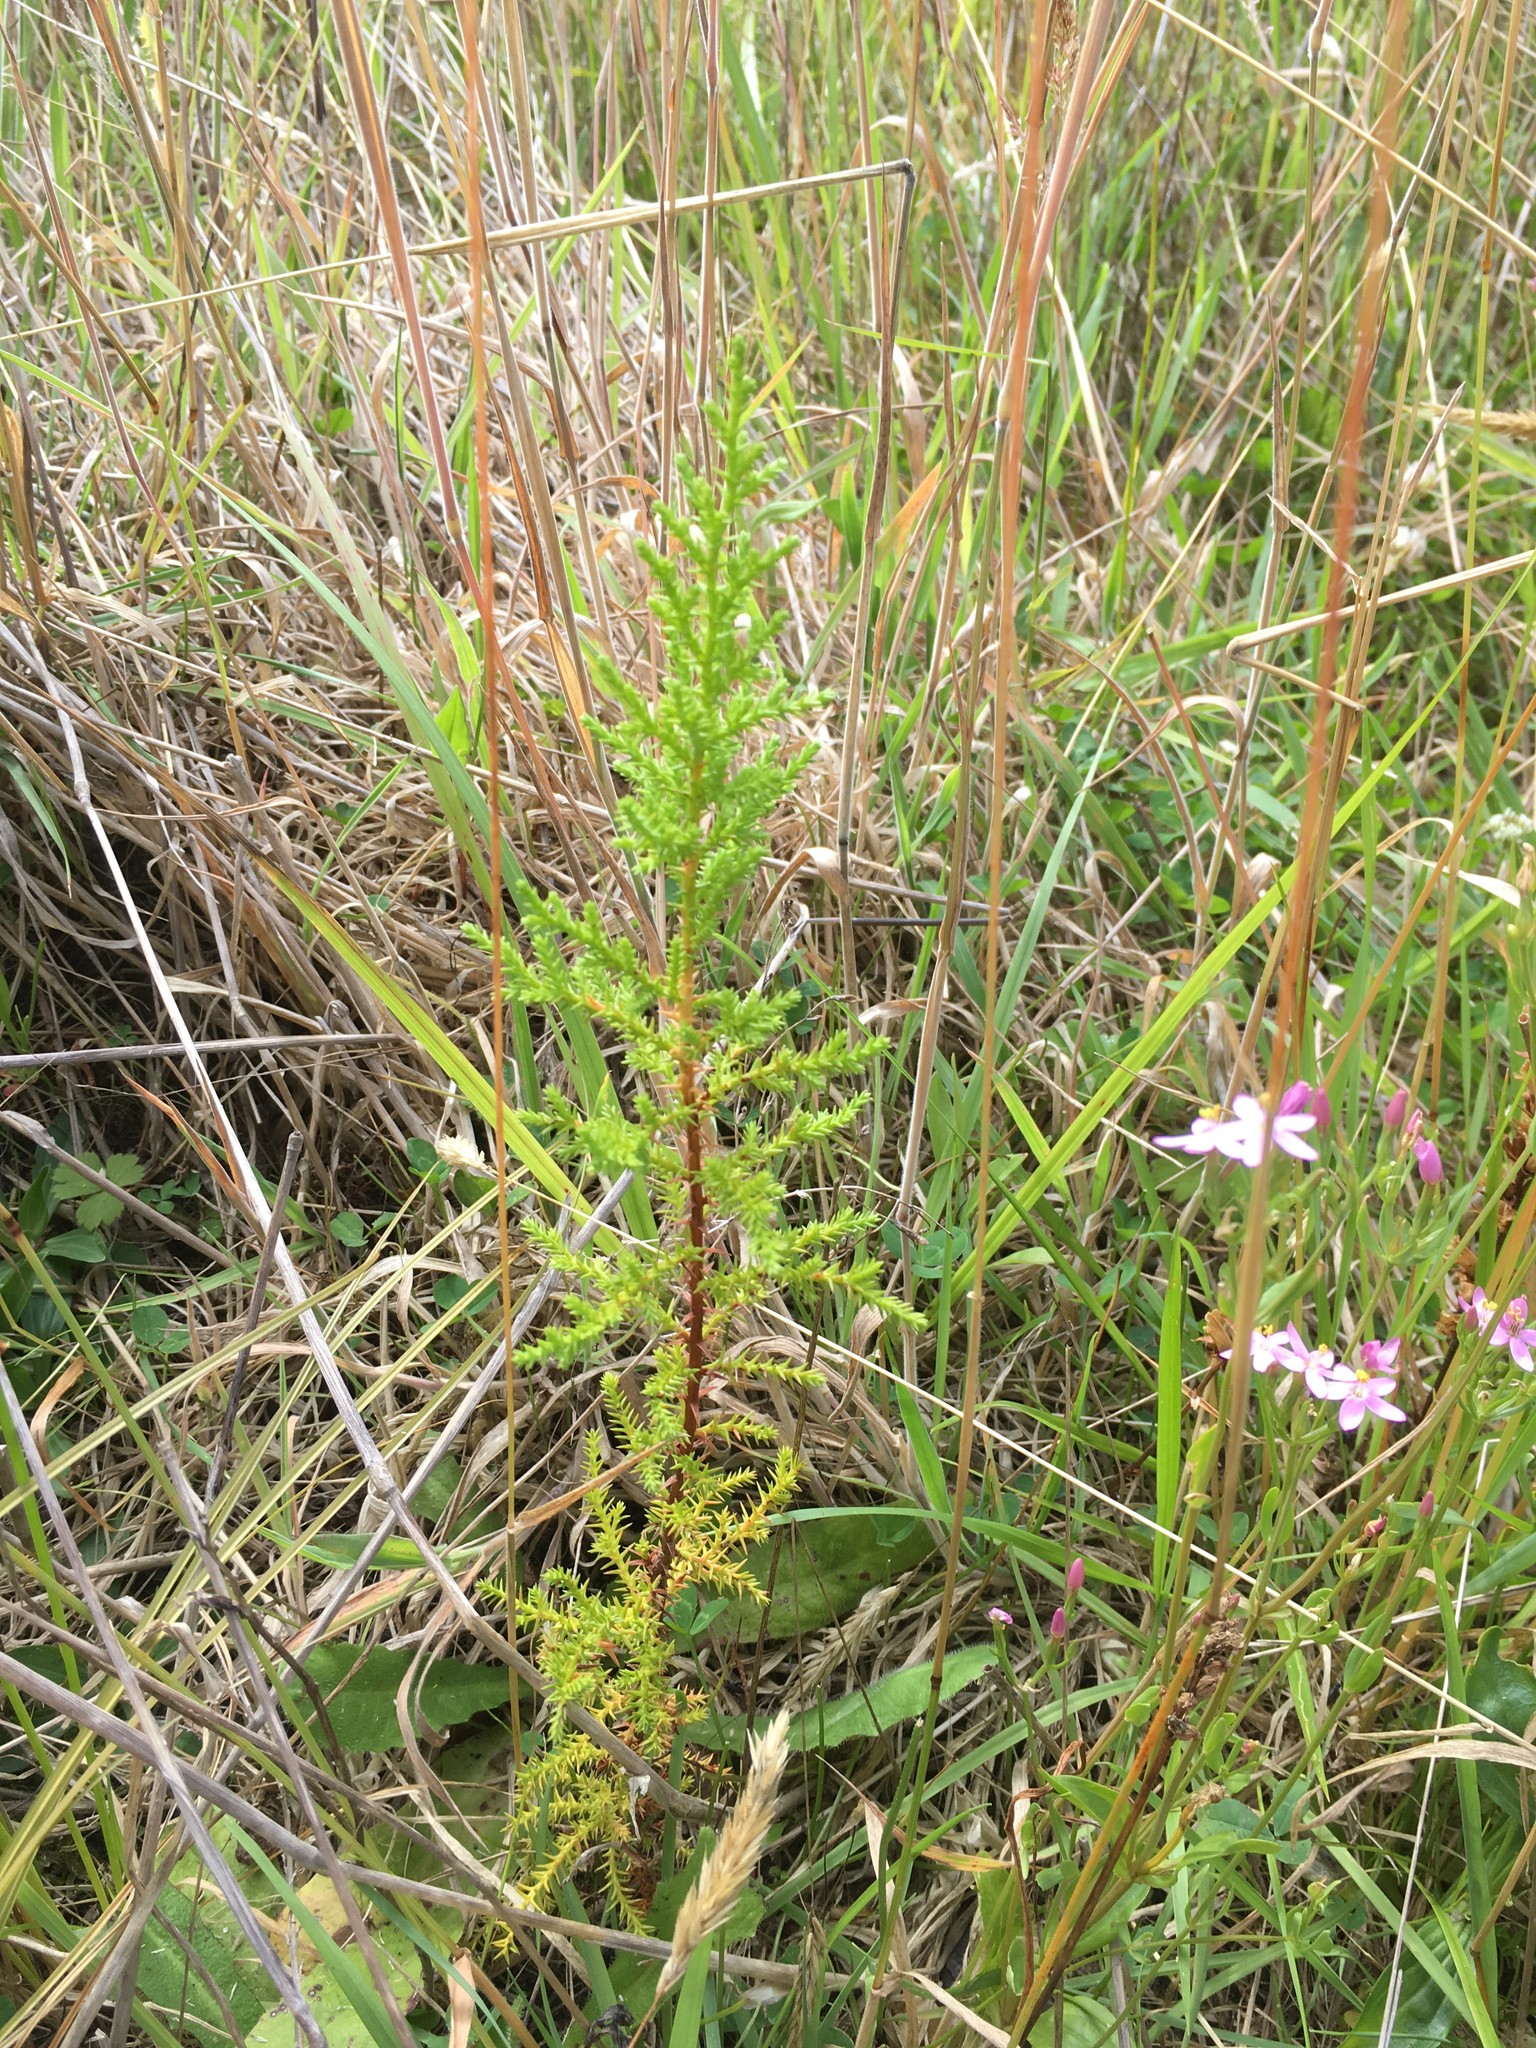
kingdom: Plantae
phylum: Tracheophyta
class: Pinopsida
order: Pinales
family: Cupressaceae
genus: Cupressus
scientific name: Cupressus macrocarpa
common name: Monterey cypress
